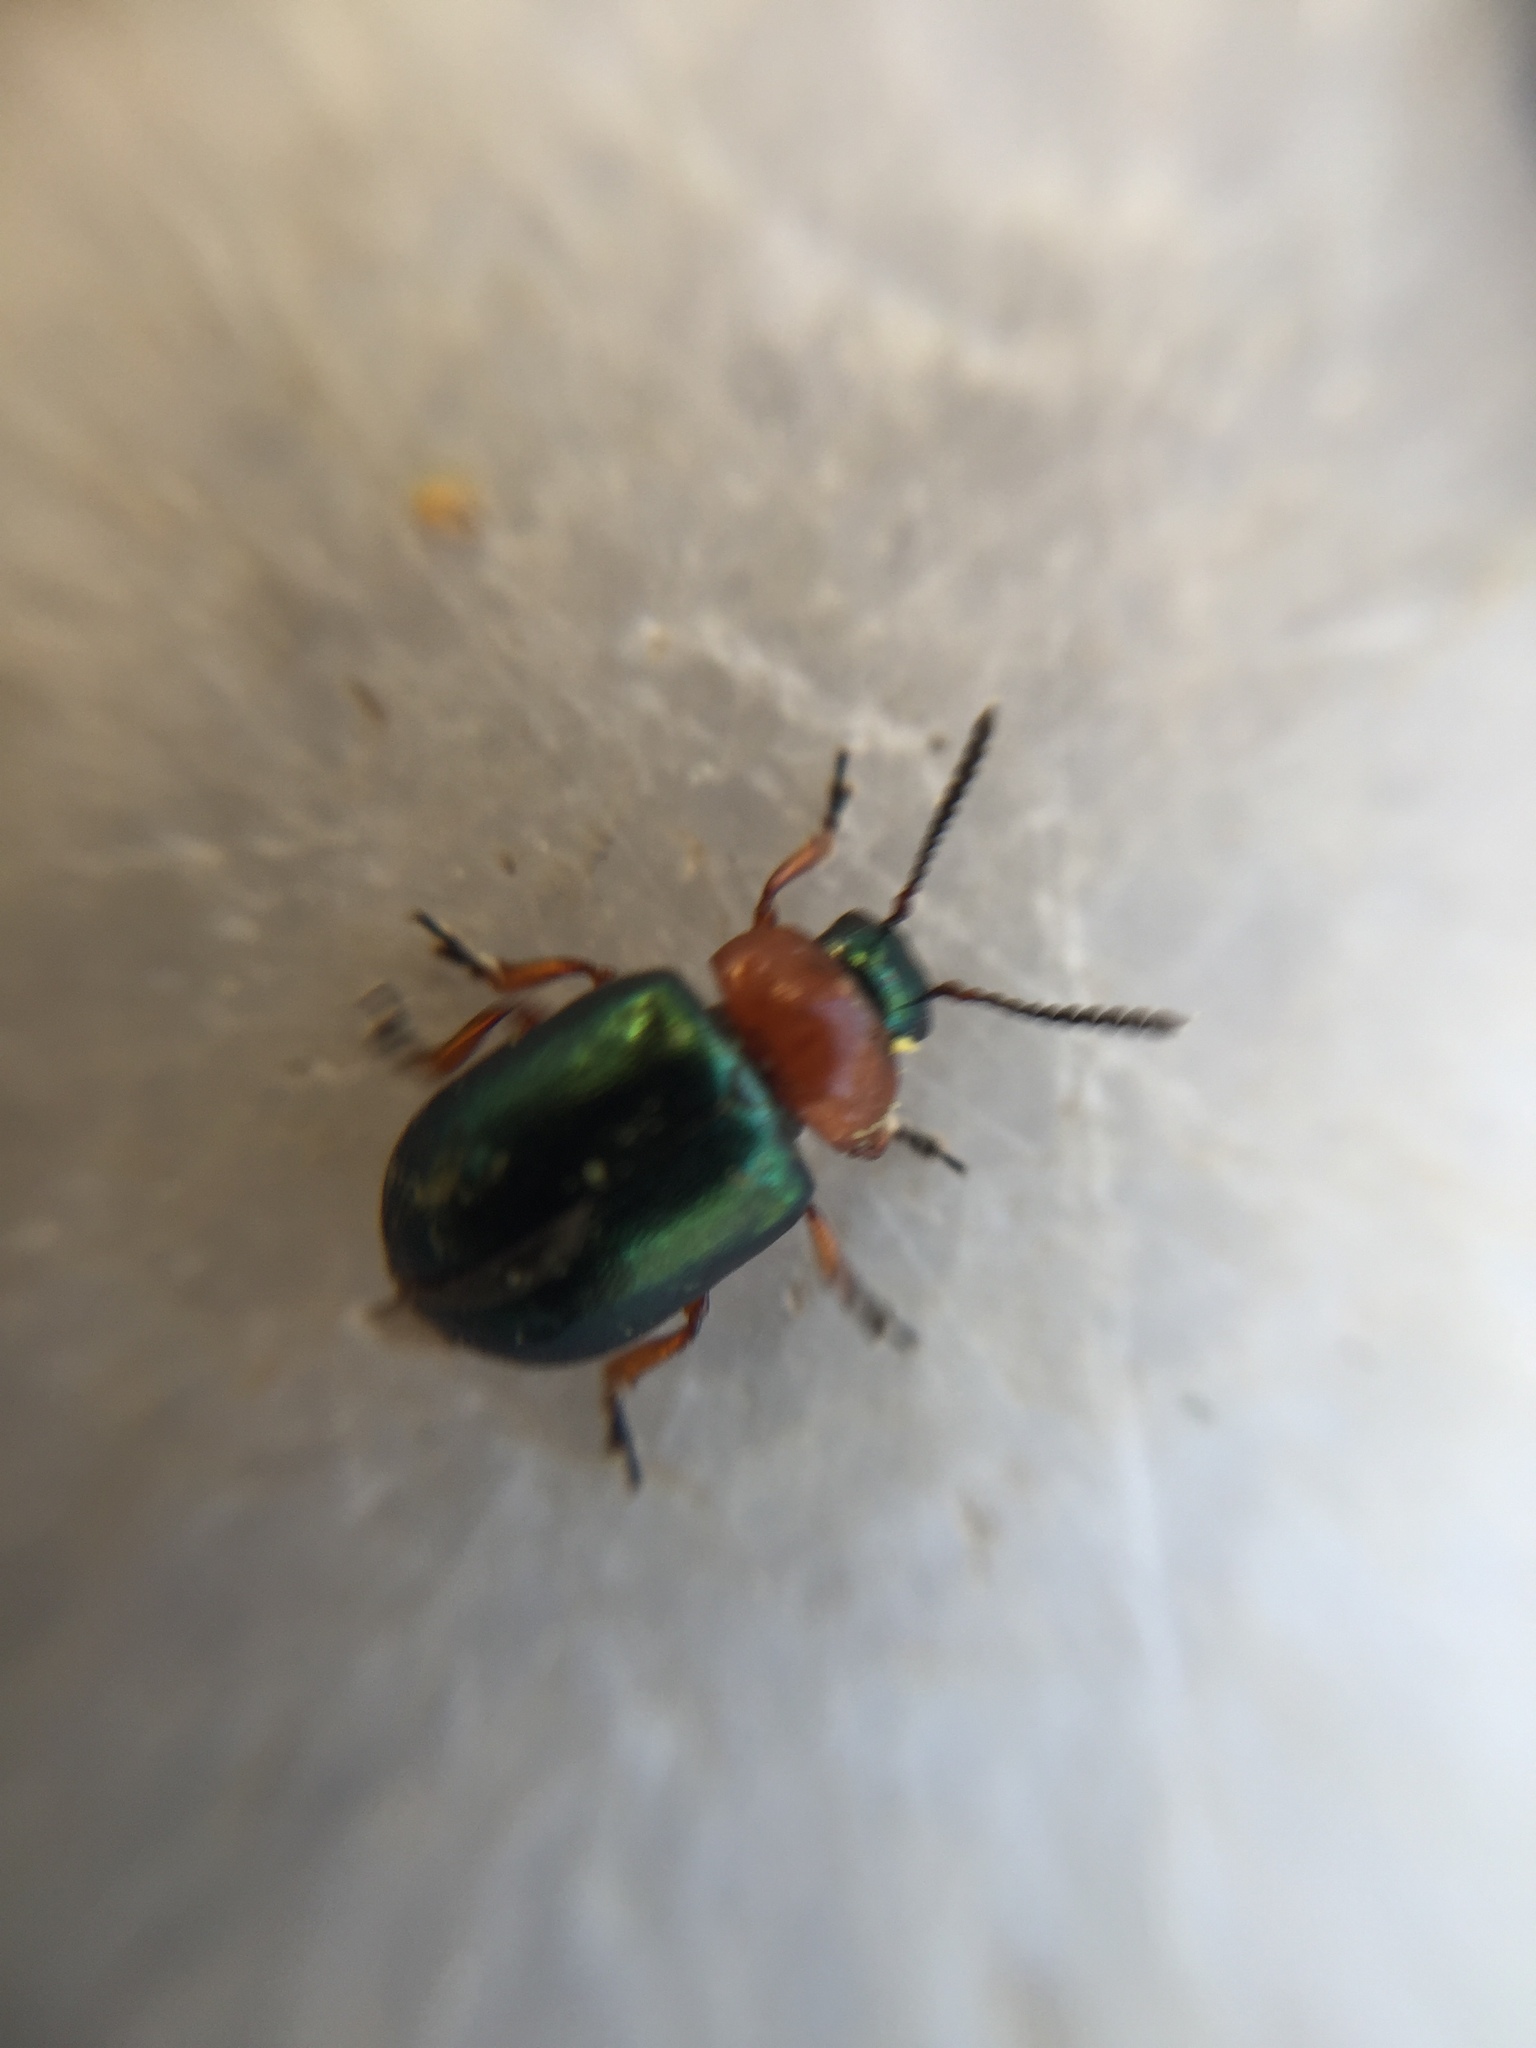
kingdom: Animalia
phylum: Arthropoda
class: Insecta
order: Coleoptera
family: Chrysomelidae
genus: Gastrophysa
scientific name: Gastrophysa polygoni
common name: Knotweed leaf beetle
